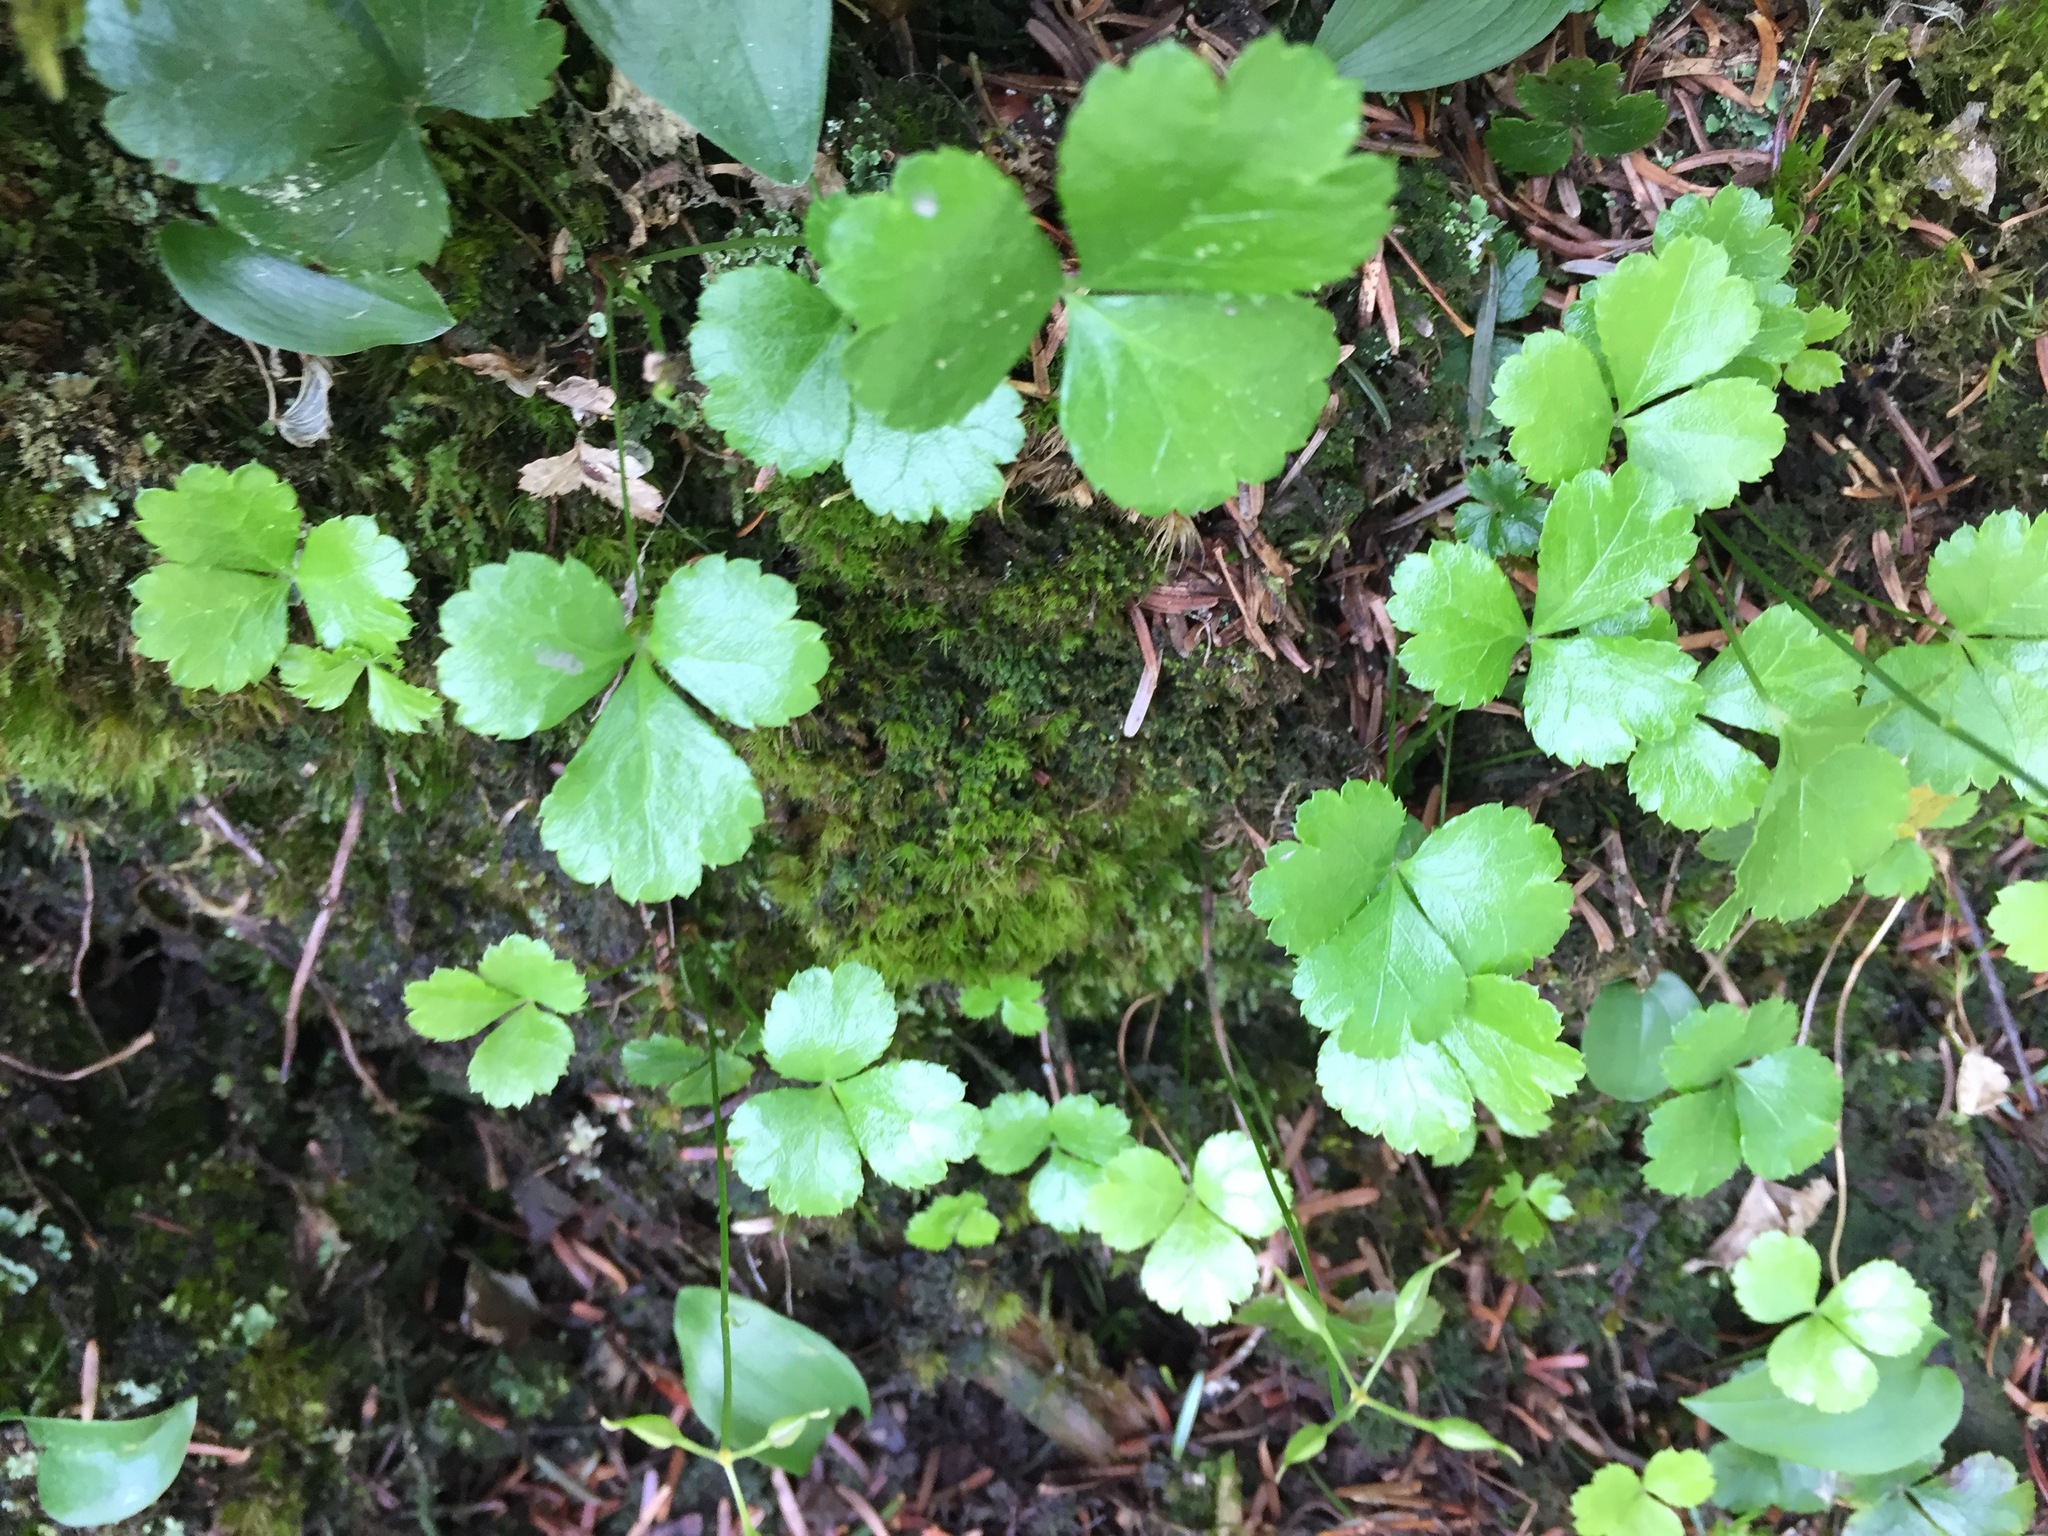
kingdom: Plantae
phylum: Tracheophyta
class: Magnoliopsida
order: Ranunculales
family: Ranunculaceae
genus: Coptis
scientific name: Coptis trifolia
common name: Canker-root
